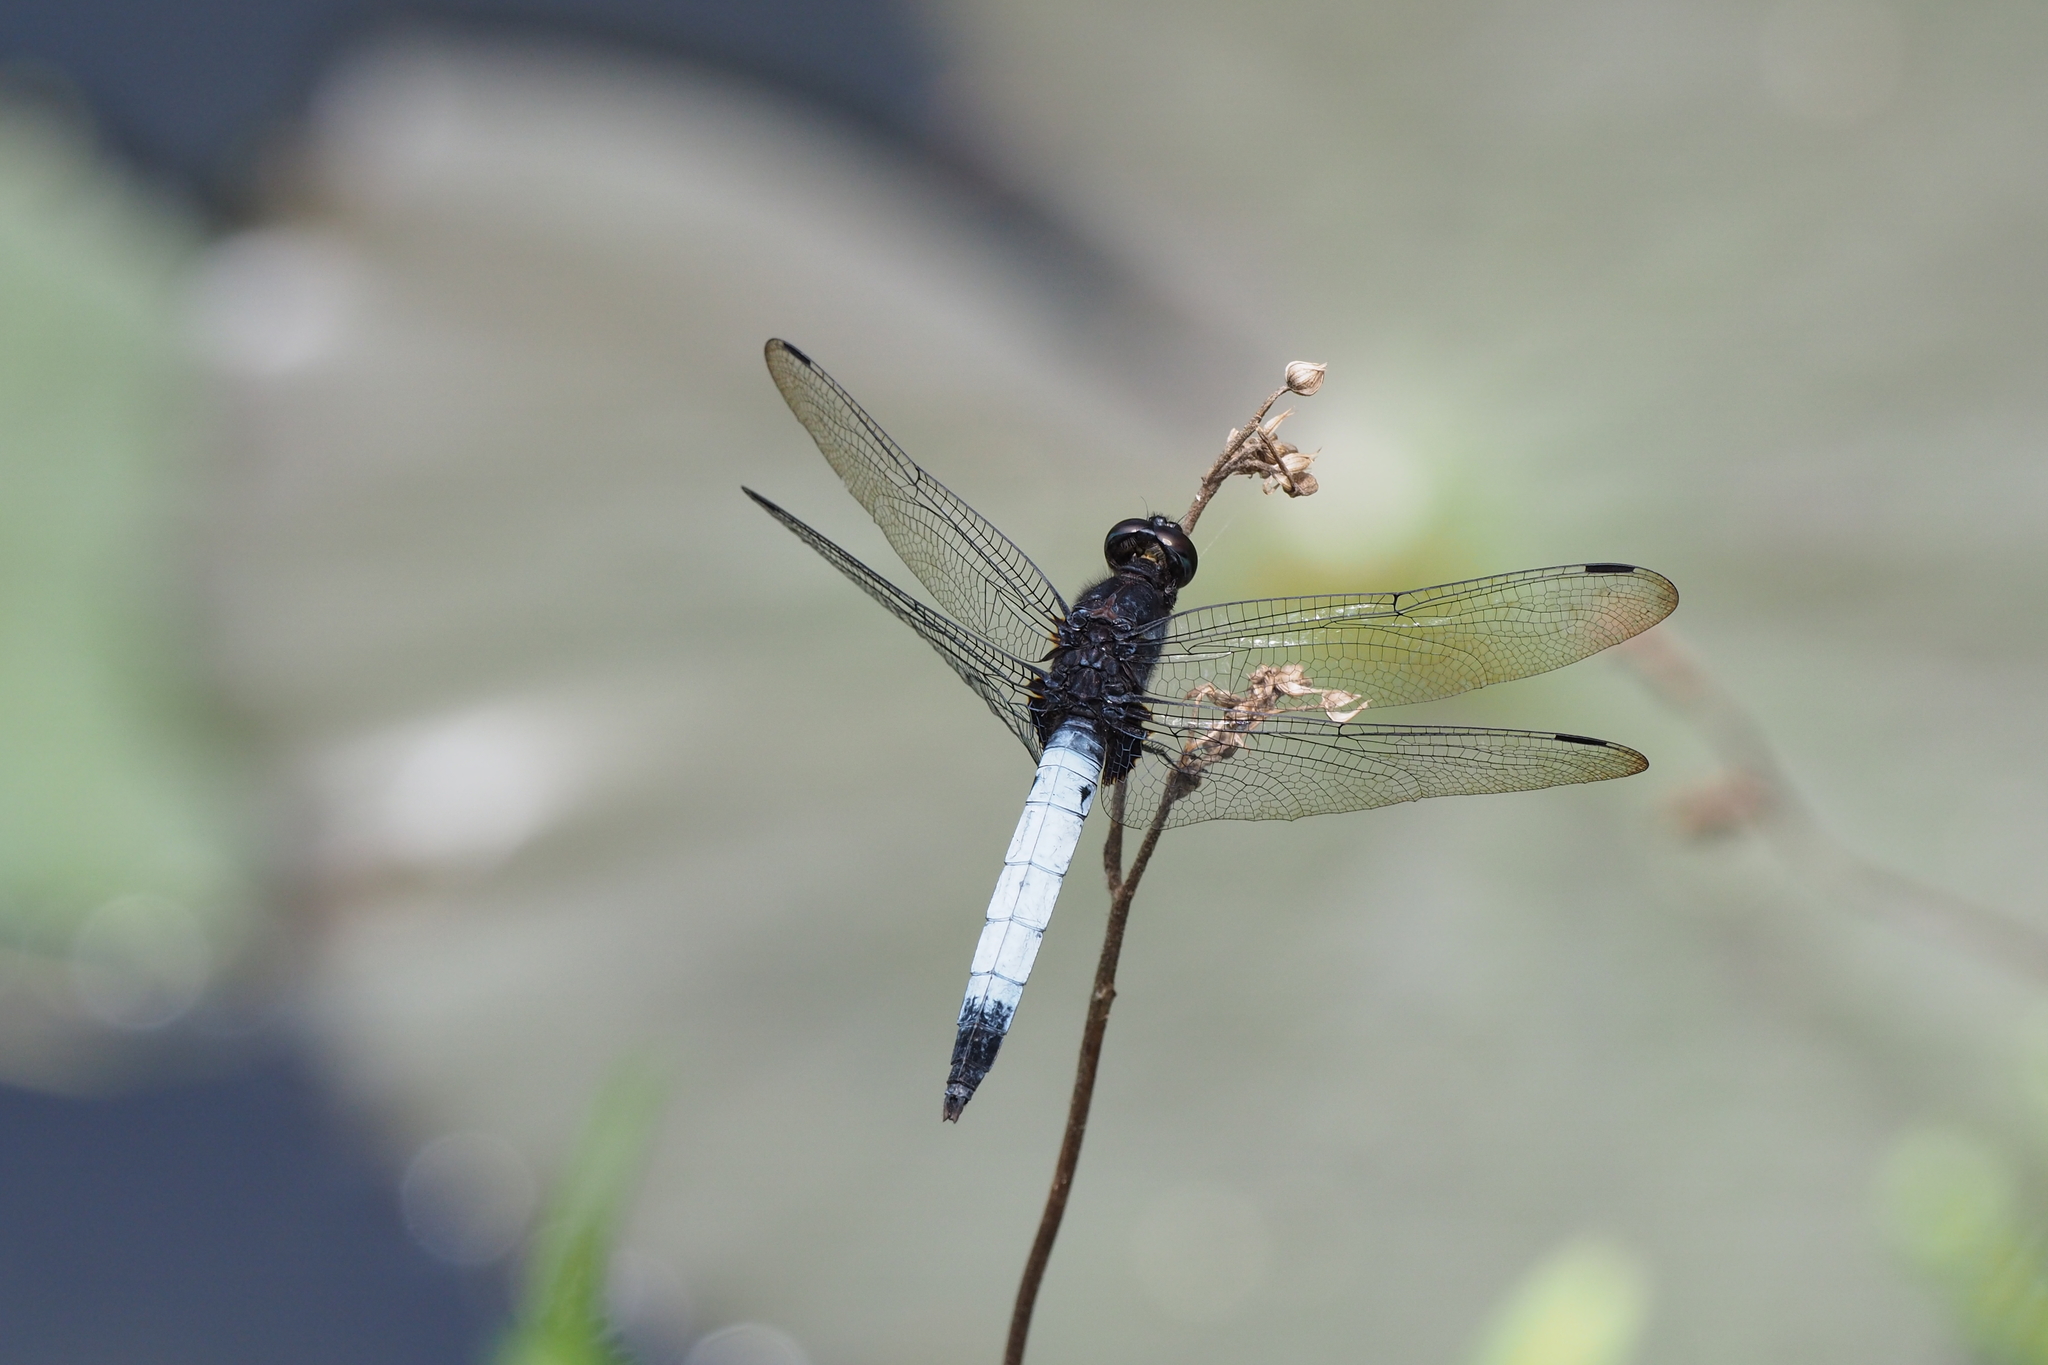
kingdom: Animalia
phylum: Arthropoda
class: Insecta
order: Odonata
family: Libellulidae
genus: Orthetrum
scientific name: Orthetrum triangulare
